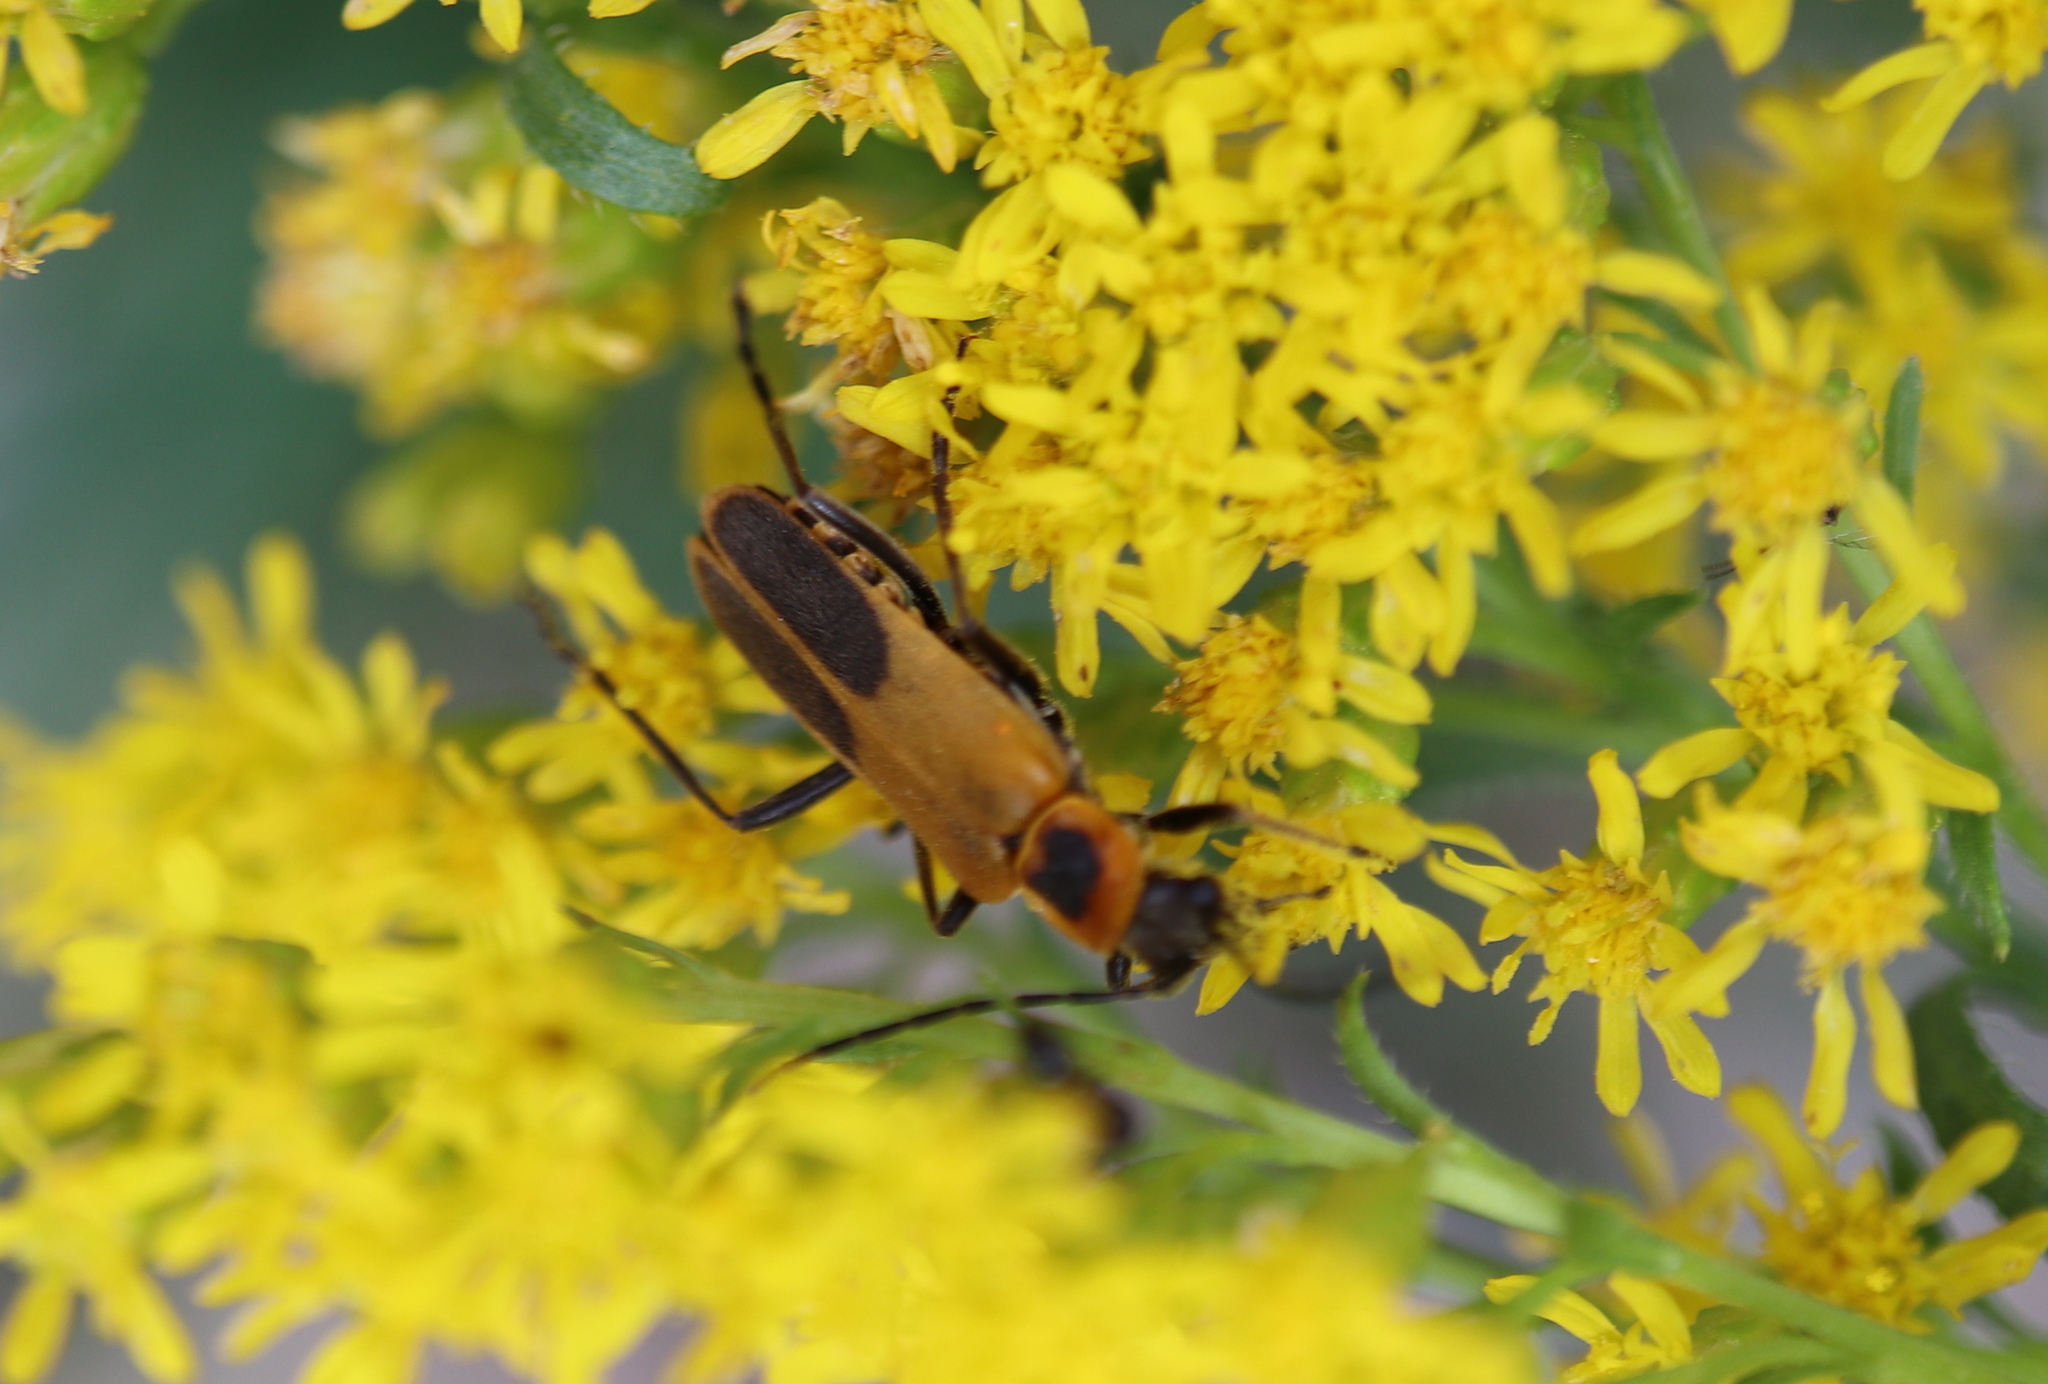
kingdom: Animalia
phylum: Arthropoda
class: Insecta
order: Coleoptera
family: Cantharidae
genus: Chauliognathus
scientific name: Chauliognathus pensylvanicus
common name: Goldenrod soldier beetle
